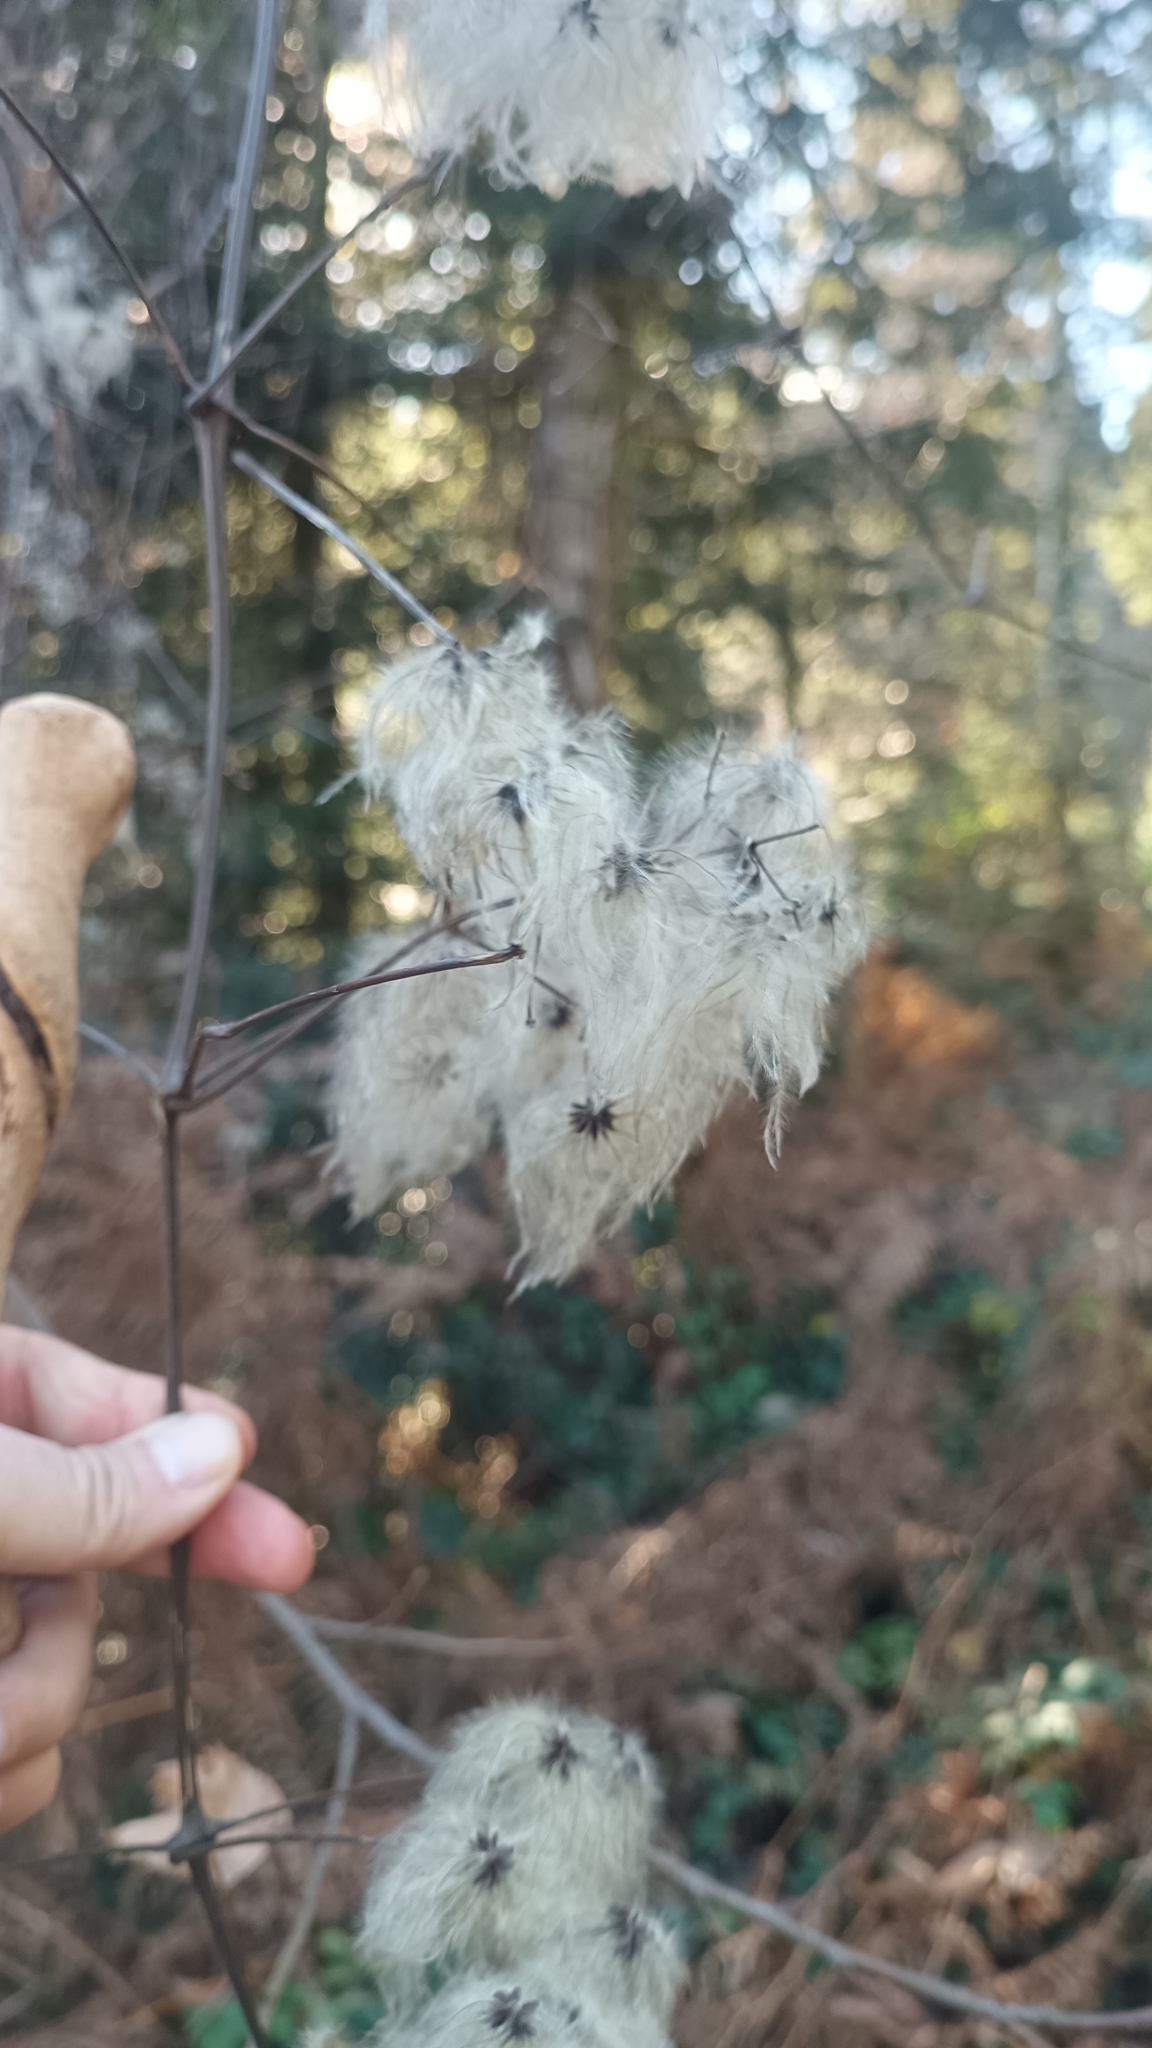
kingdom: Plantae
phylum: Tracheophyta
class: Magnoliopsida
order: Ranunculales
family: Ranunculaceae
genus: Clematis
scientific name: Clematis vitalba
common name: Evergreen clematis
